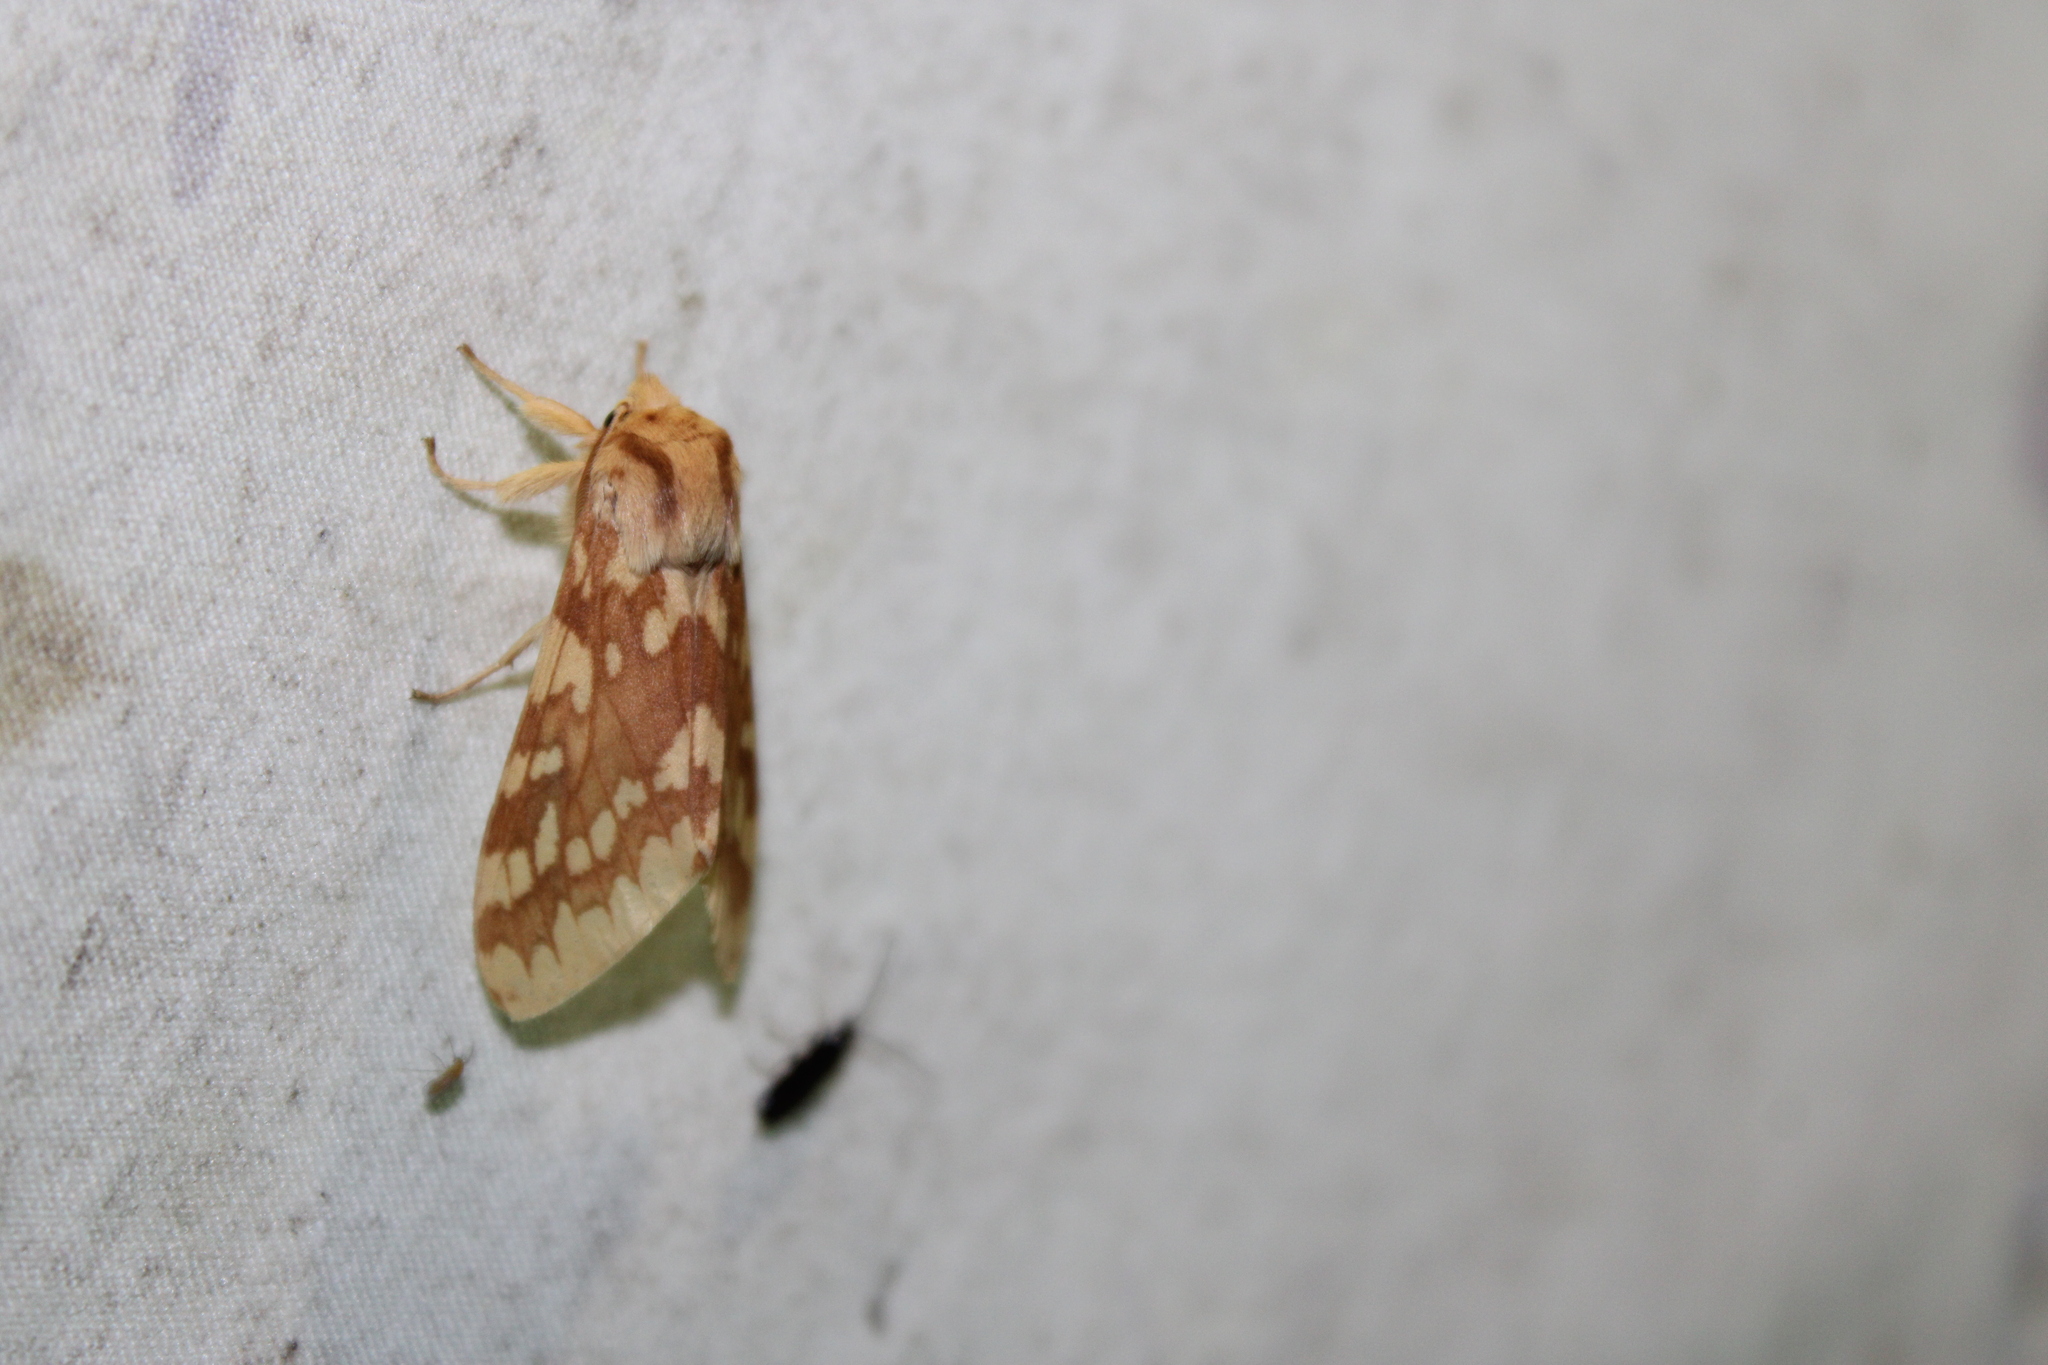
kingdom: Animalia
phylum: Arthropoda
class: Insecta
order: Lepidoptera
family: Erebidae
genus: Lophocampa
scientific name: Lophocampa maculata
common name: Spotted tussock moth
